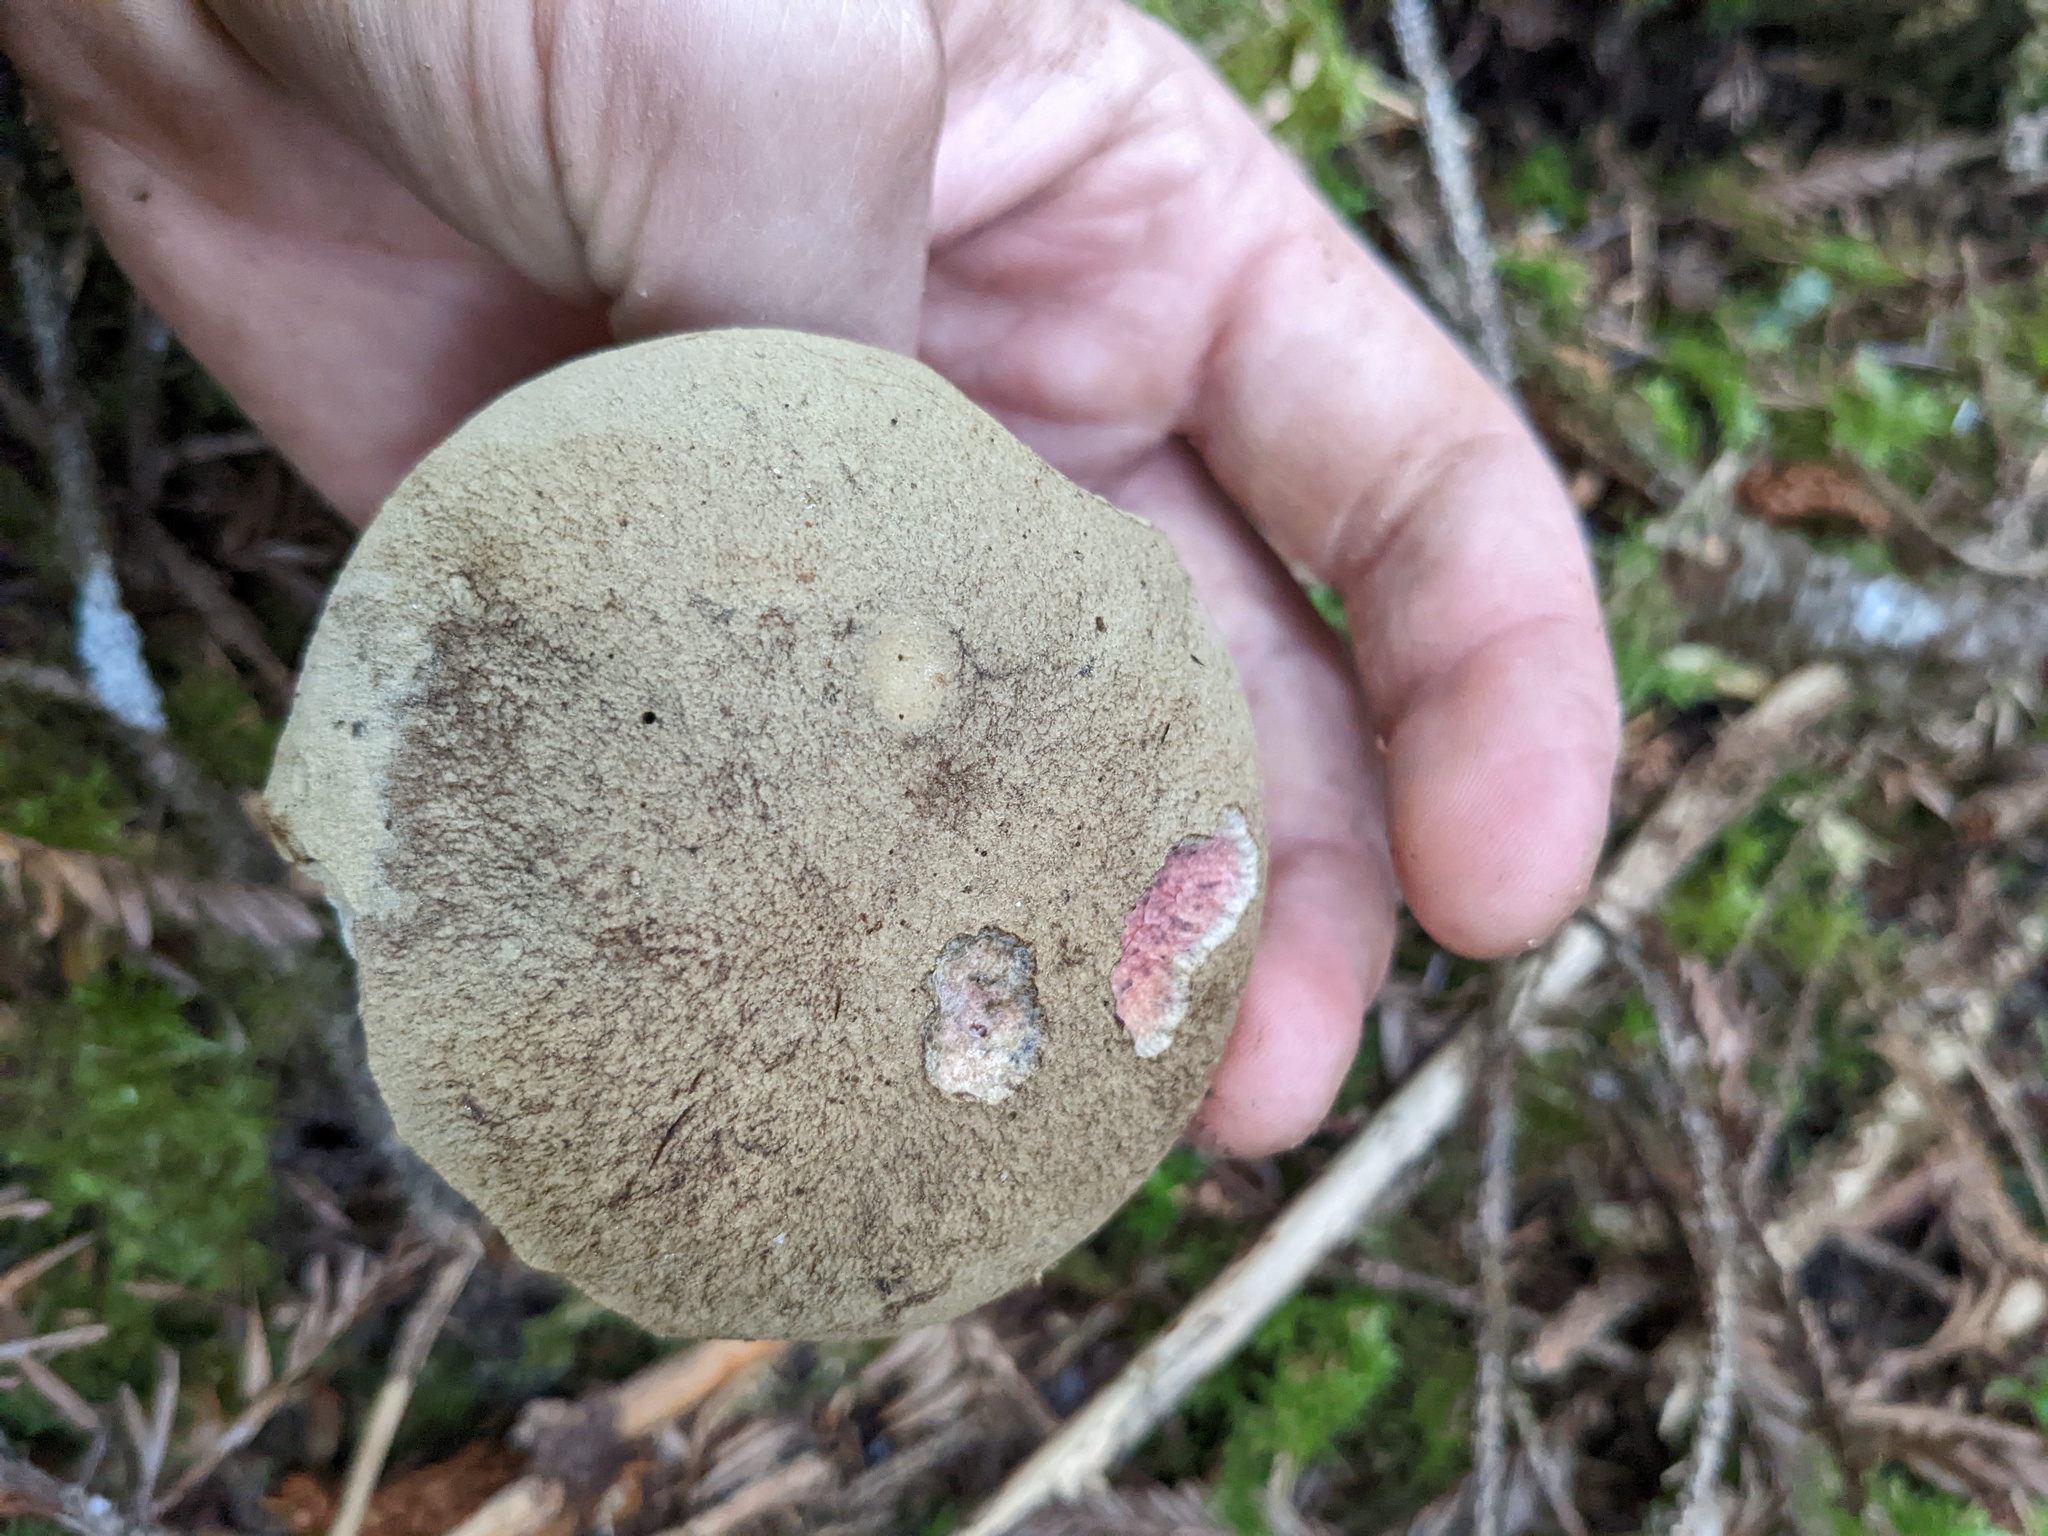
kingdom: Fungi
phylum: Basidiomycota
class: Agaricomycetes
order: Boletales
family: Boletaceae
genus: Caloboletus
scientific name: Caloboletus rubripes
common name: Red-footed bitter bolete
